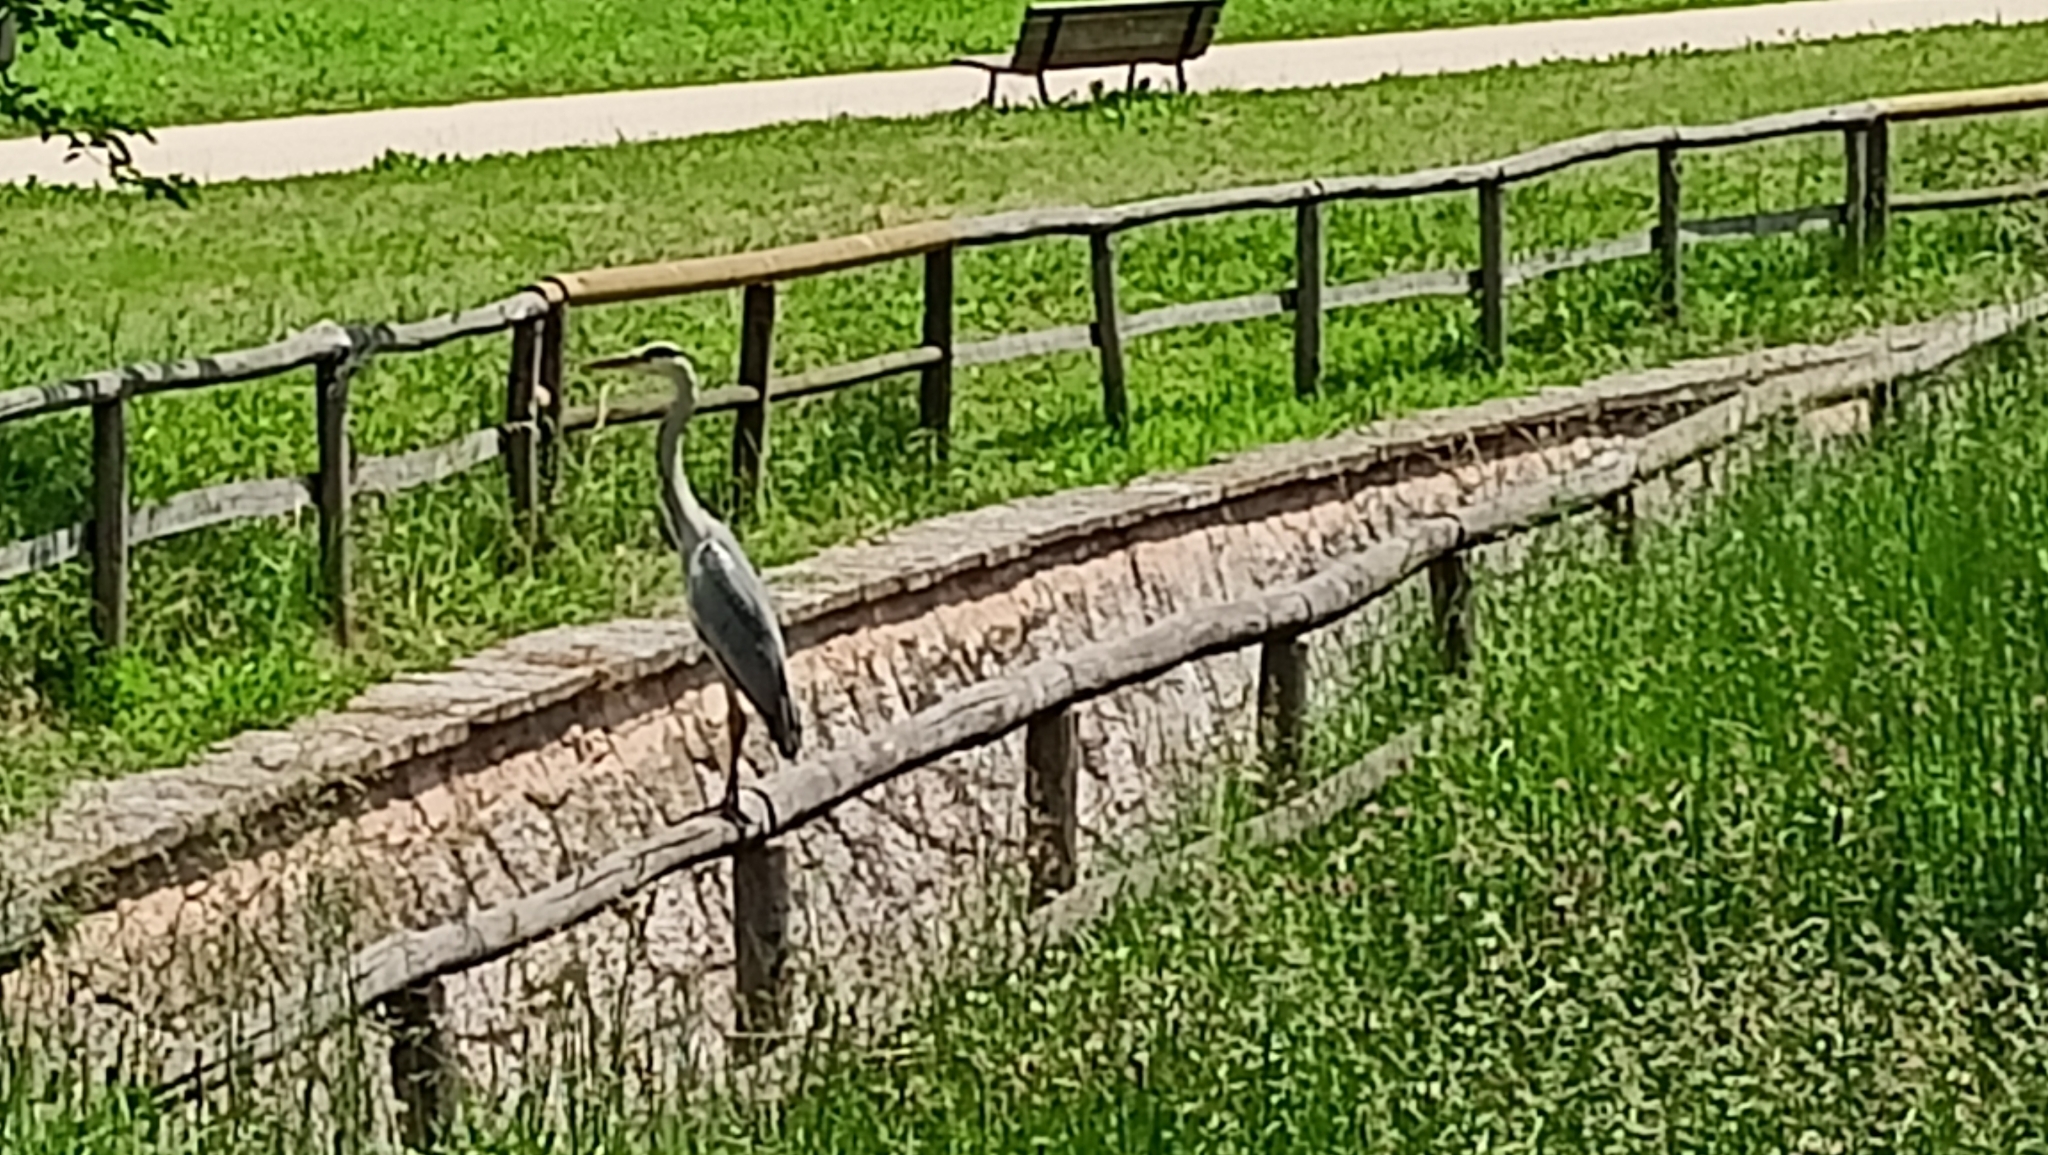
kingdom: Animalia
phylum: Chordata
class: Aves
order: Pelecaniformes
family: Ardeidae
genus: Ardea
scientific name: Ardea cinerea
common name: Grey heron
